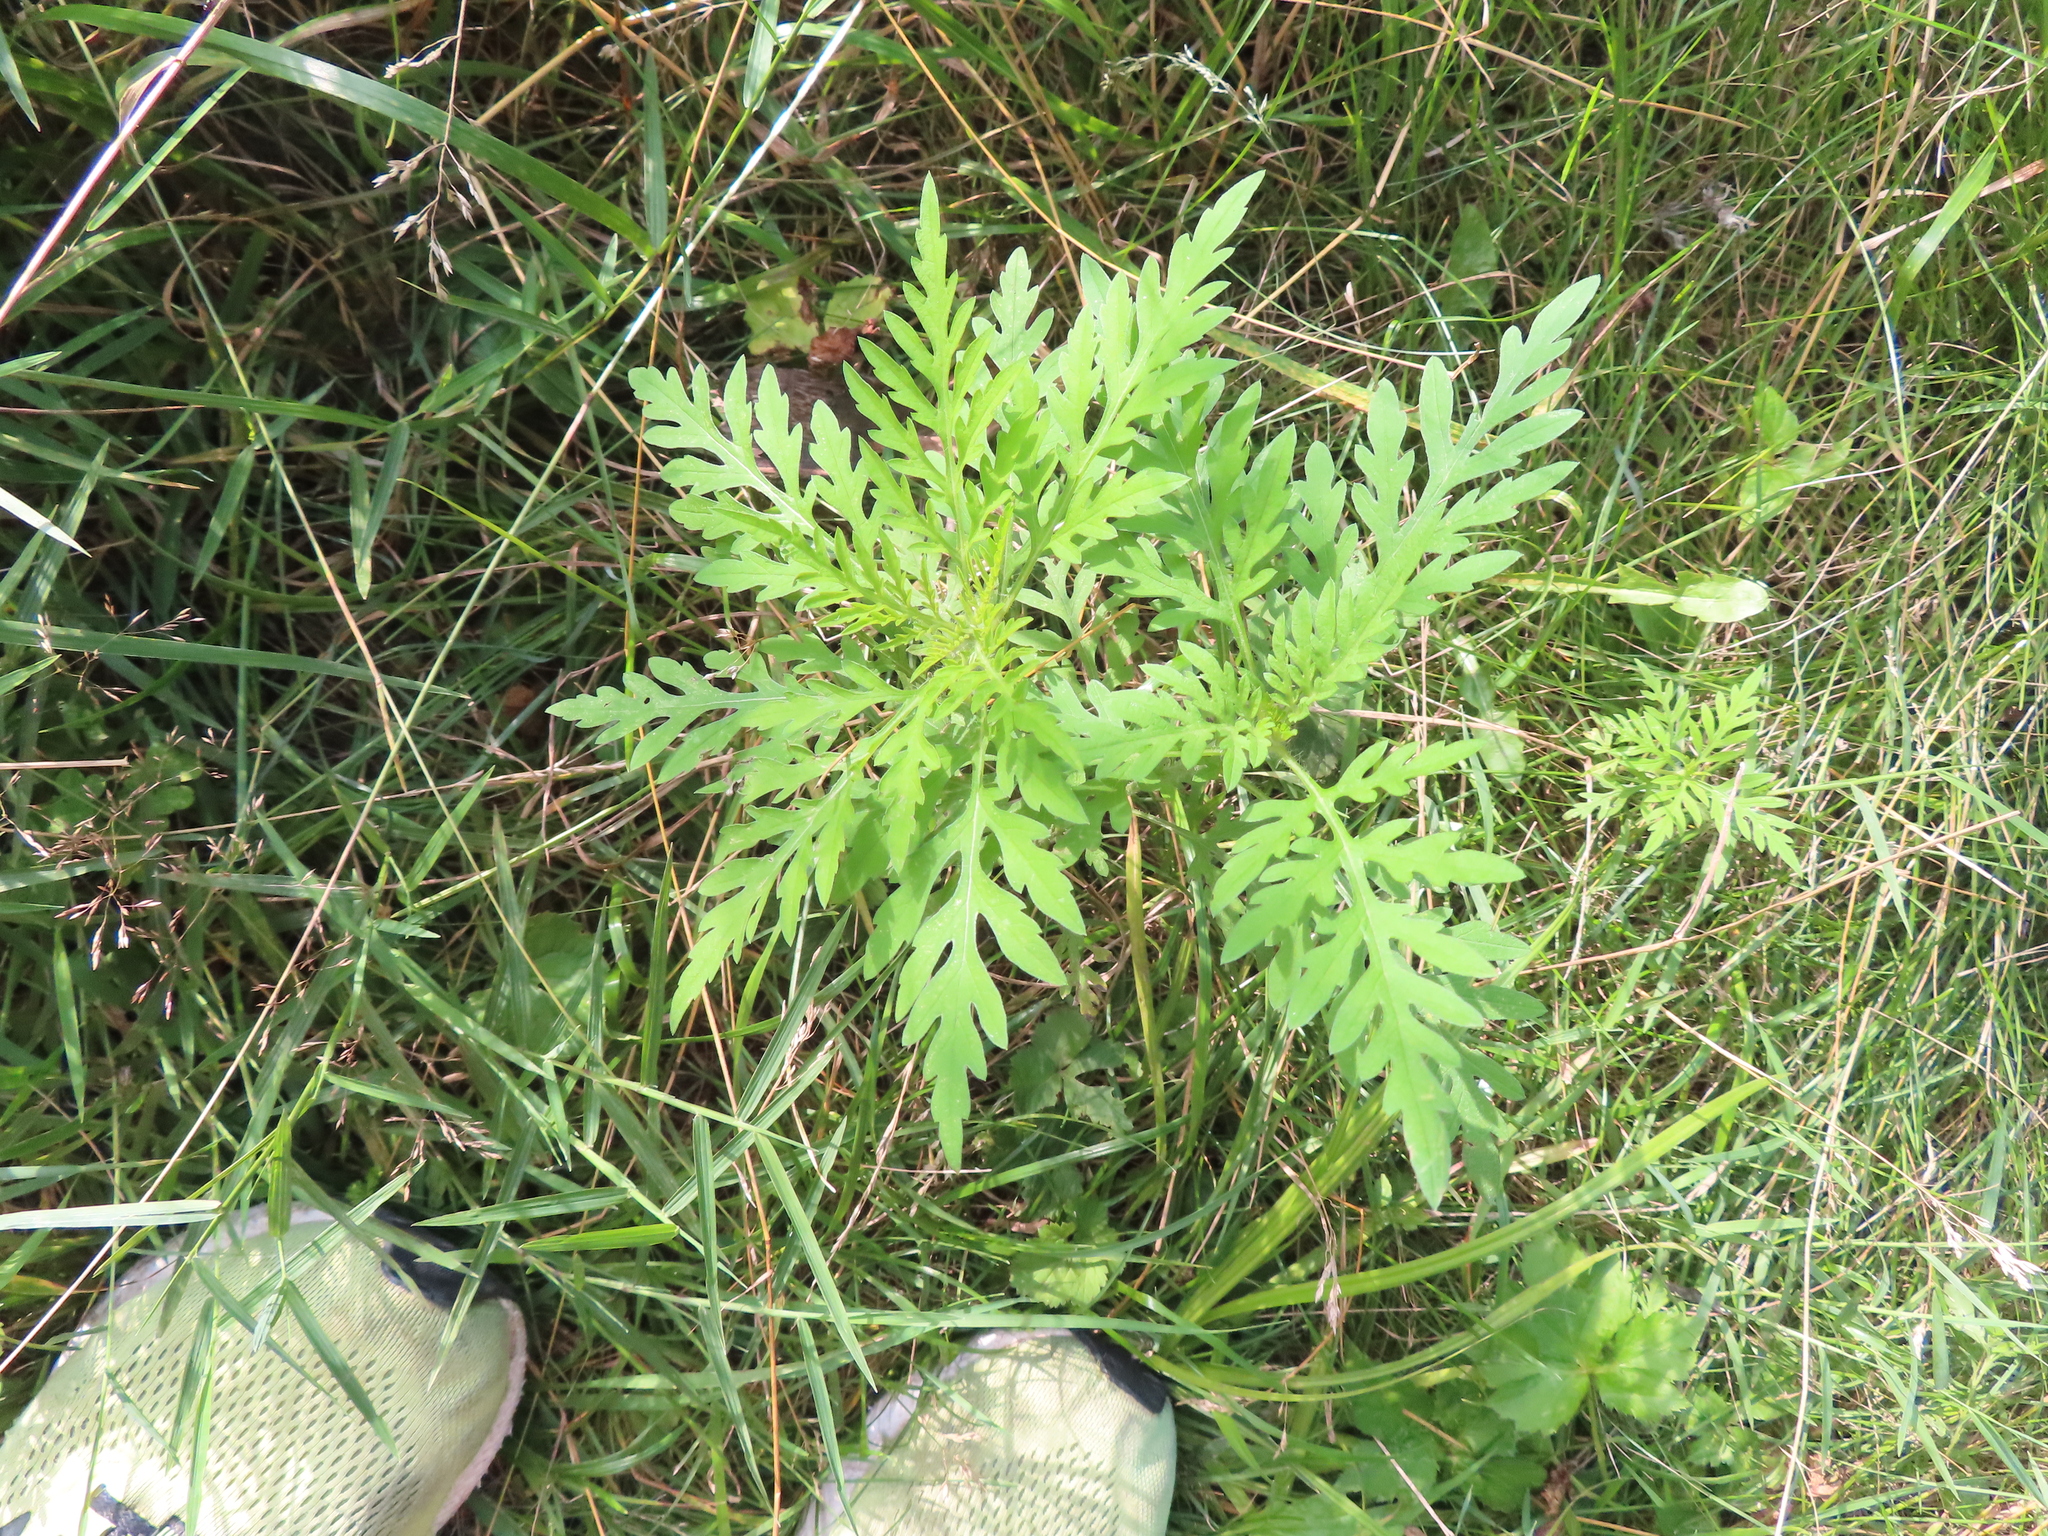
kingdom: Plantae
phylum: Tracheophyta
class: Magnoliopsida
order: Asterales
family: Asteraceae
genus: Ambrosia
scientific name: Ambrosia artemisiifolia
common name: Annual ragweed
